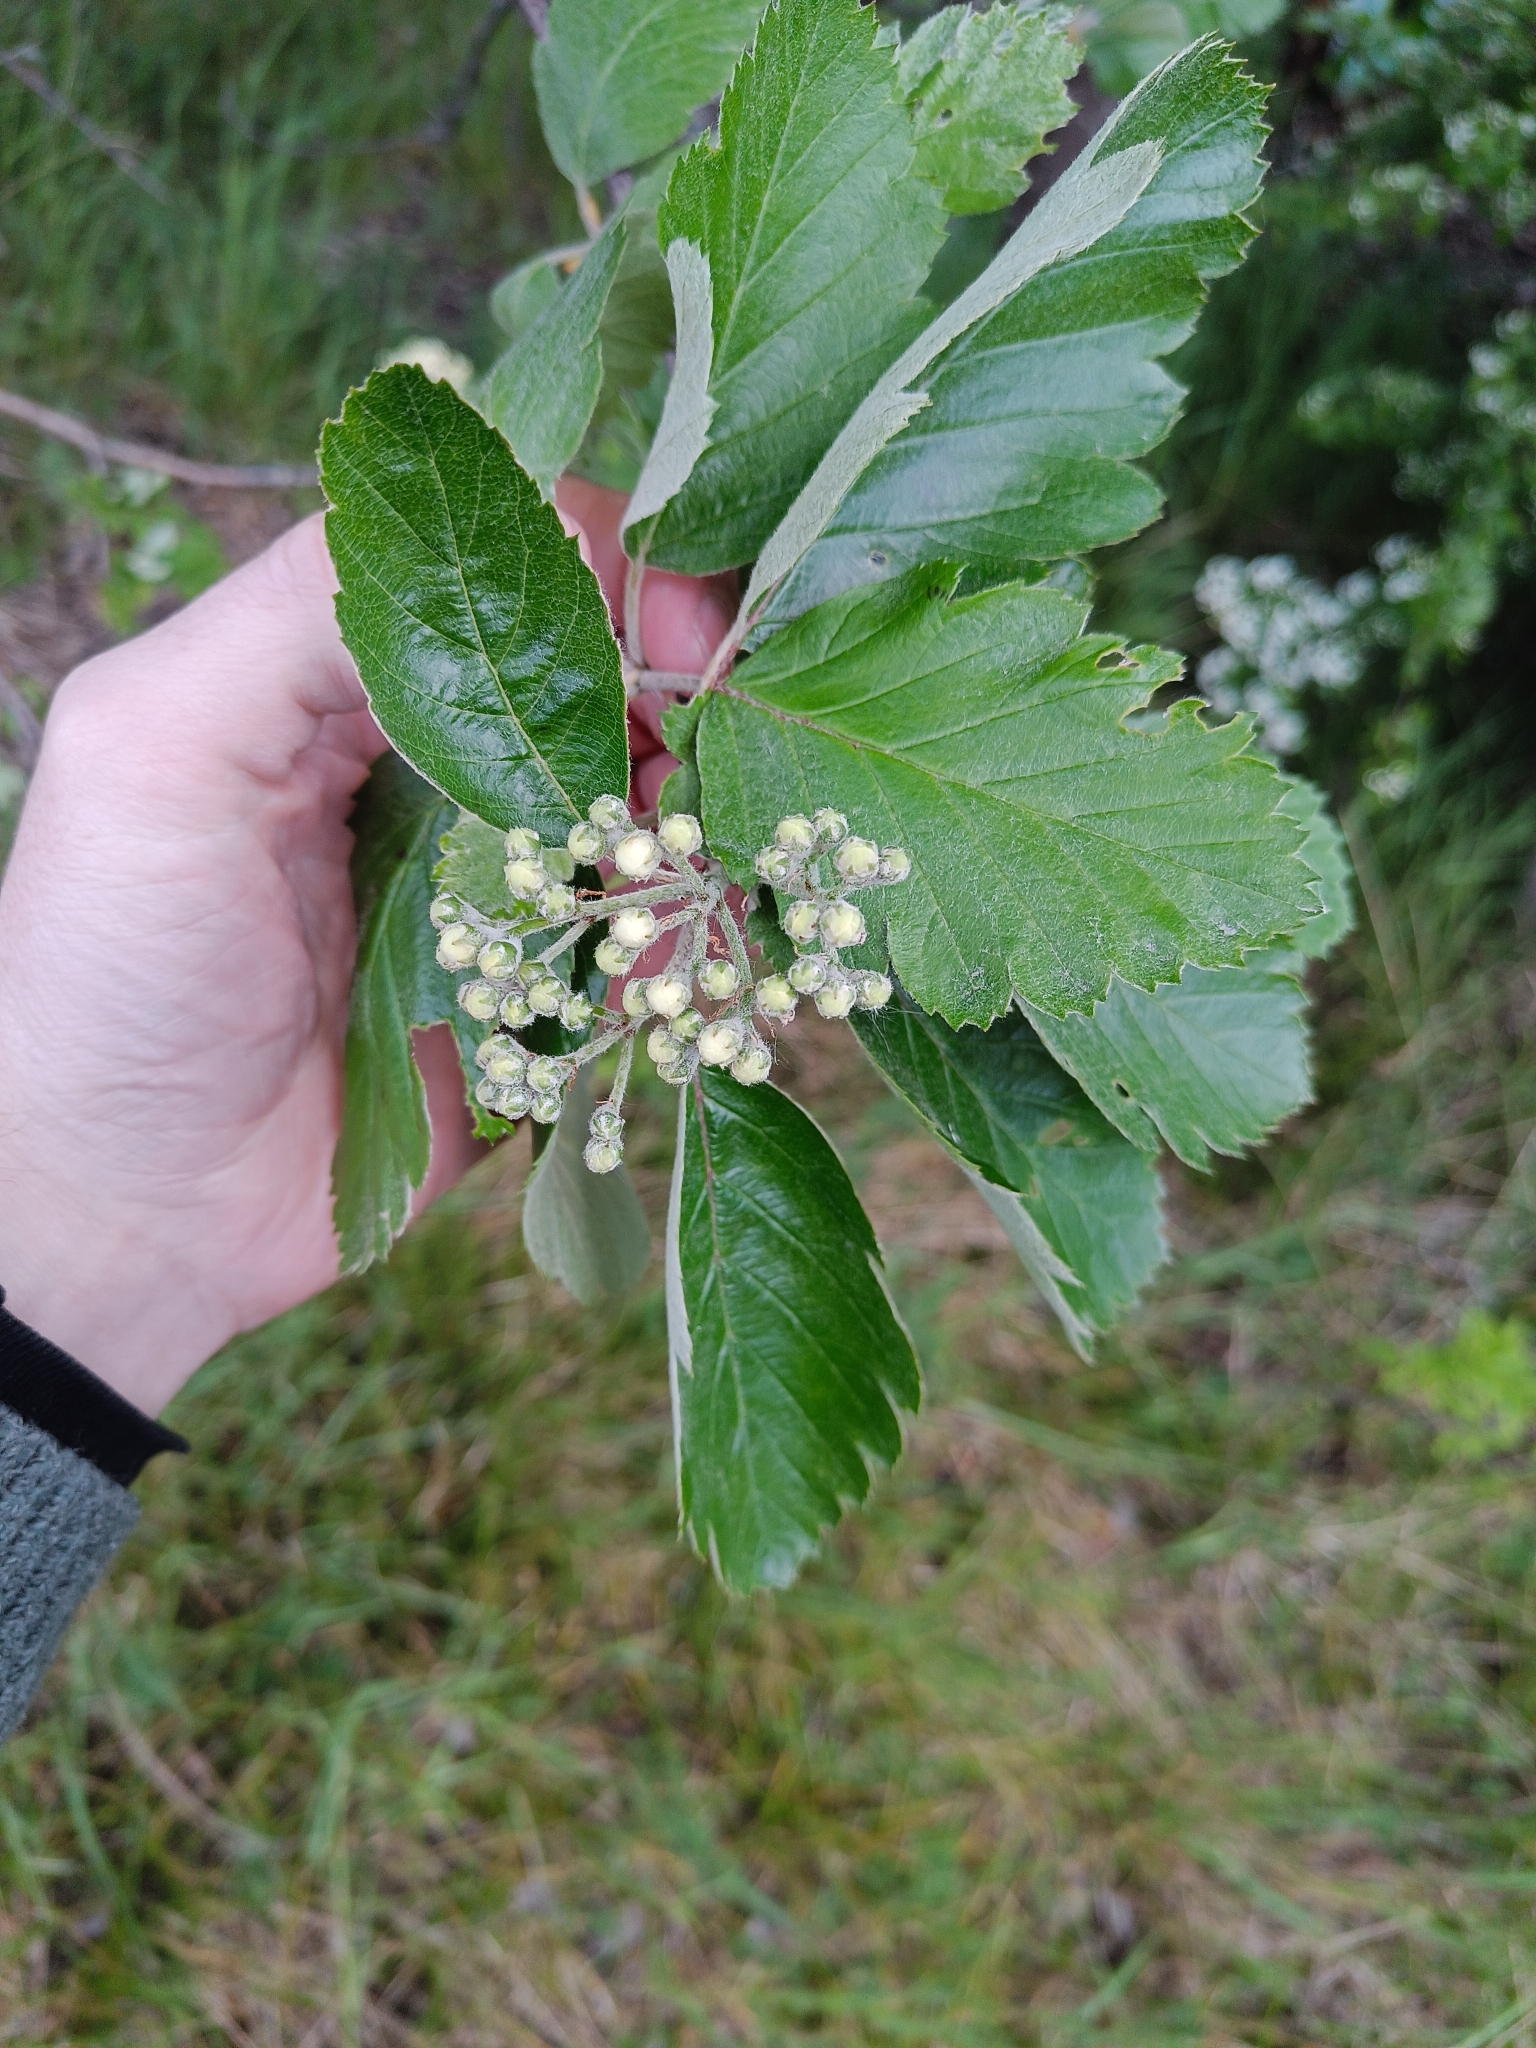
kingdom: Plantae
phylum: Tracheophyta
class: Magnoliopsida
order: Rosales
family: Rosaceae
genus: Scandosorbus
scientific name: Scandosorbus intermedia
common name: Swedish whitebeam
